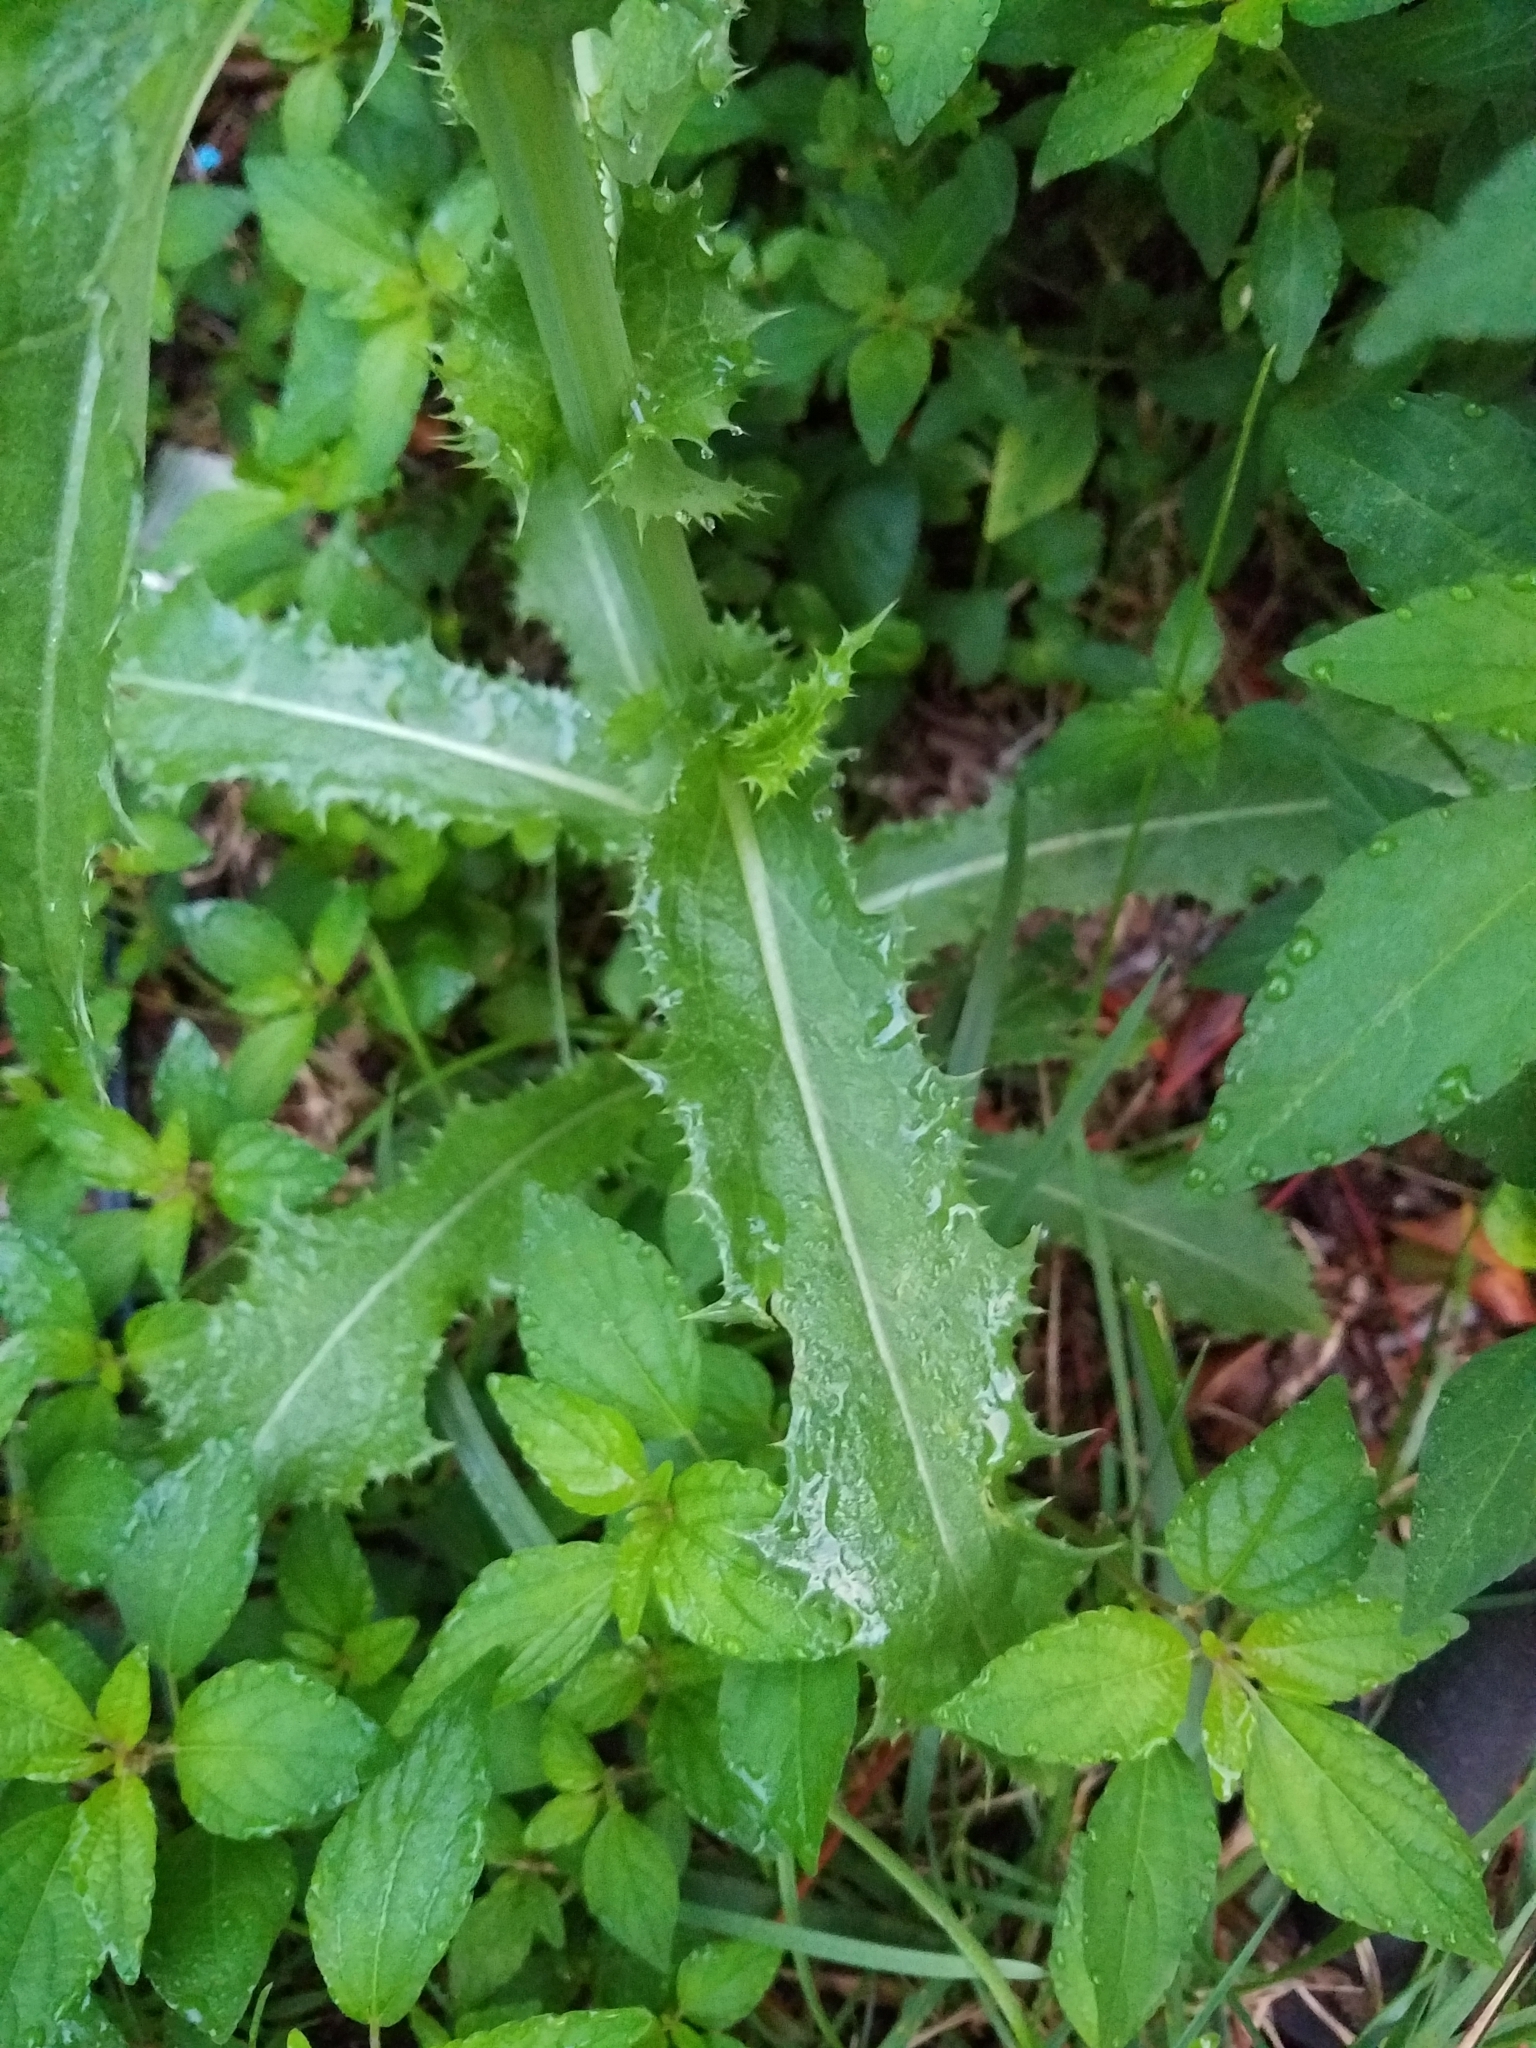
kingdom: Plantae
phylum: Tracheophyta
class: Magnoliopsida
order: Asterales
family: Asteraceae
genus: Sonchus
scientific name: Sonchus asper
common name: Prickly sow-thistle
